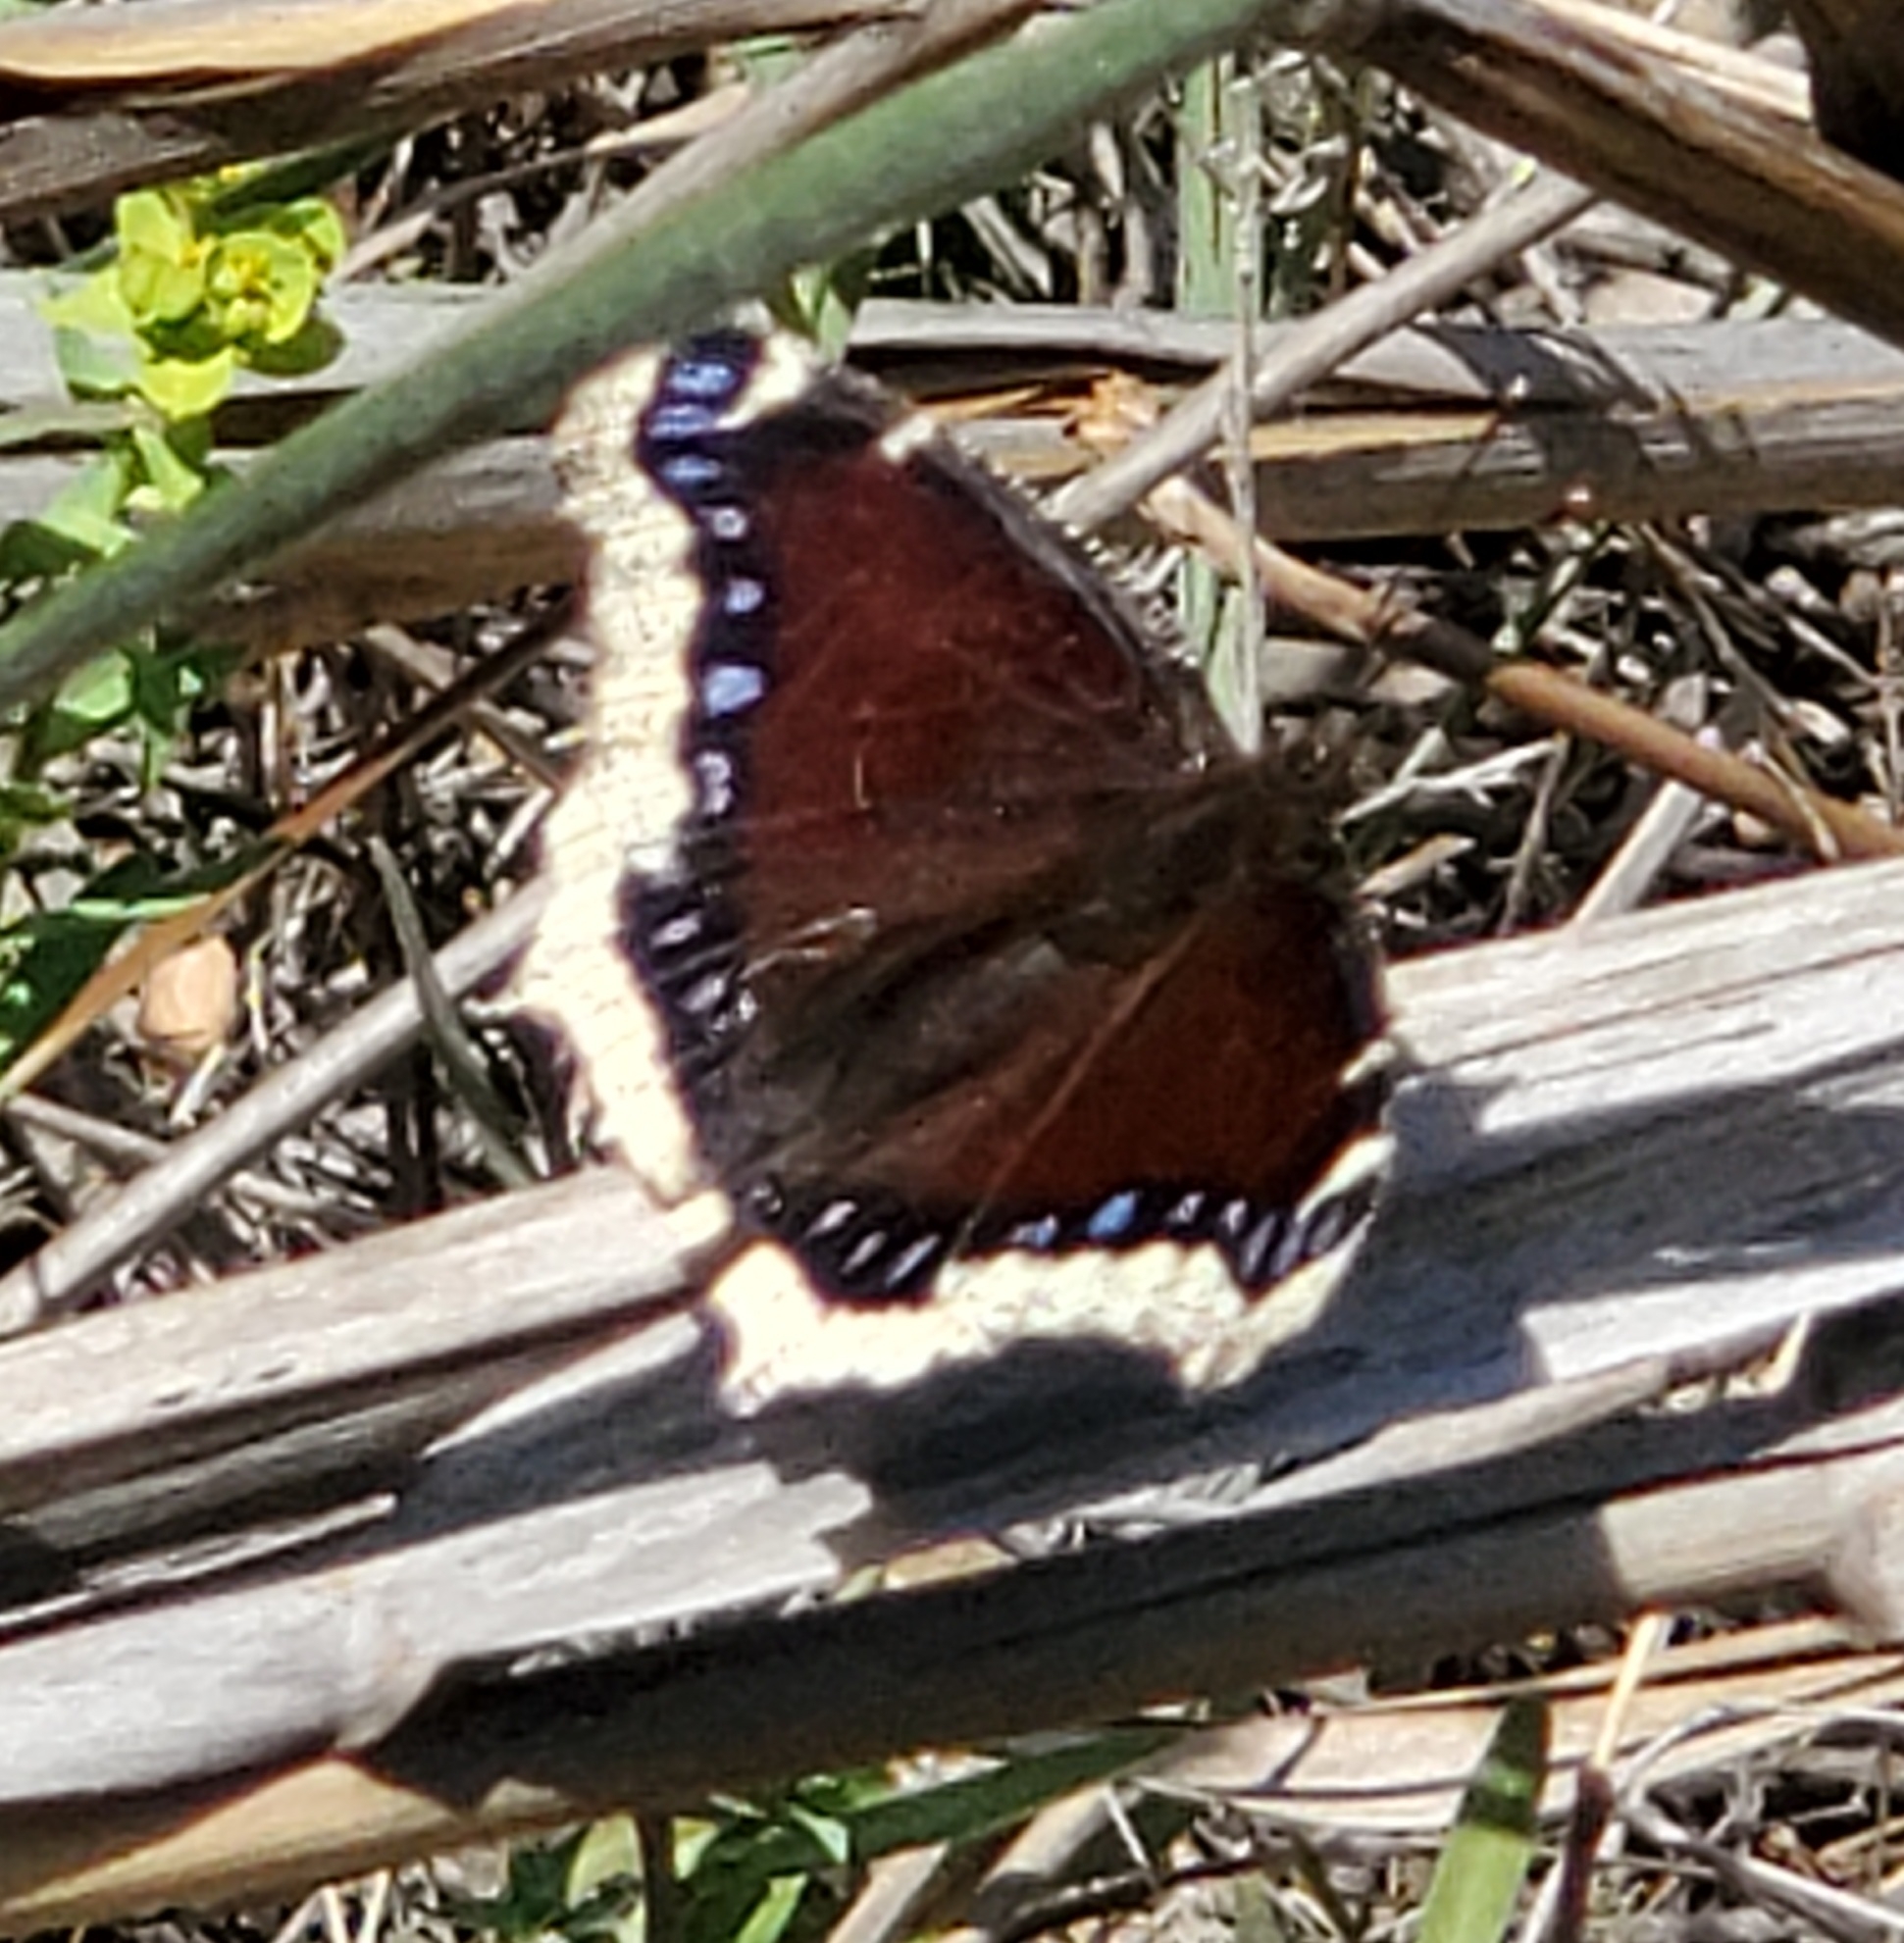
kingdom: Animalia
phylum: Arthropoda
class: Insecta
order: Lepidoptera
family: Nymphalidae
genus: Nymphalis
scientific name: Nymphalis antiopa
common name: Camberwell beauty
